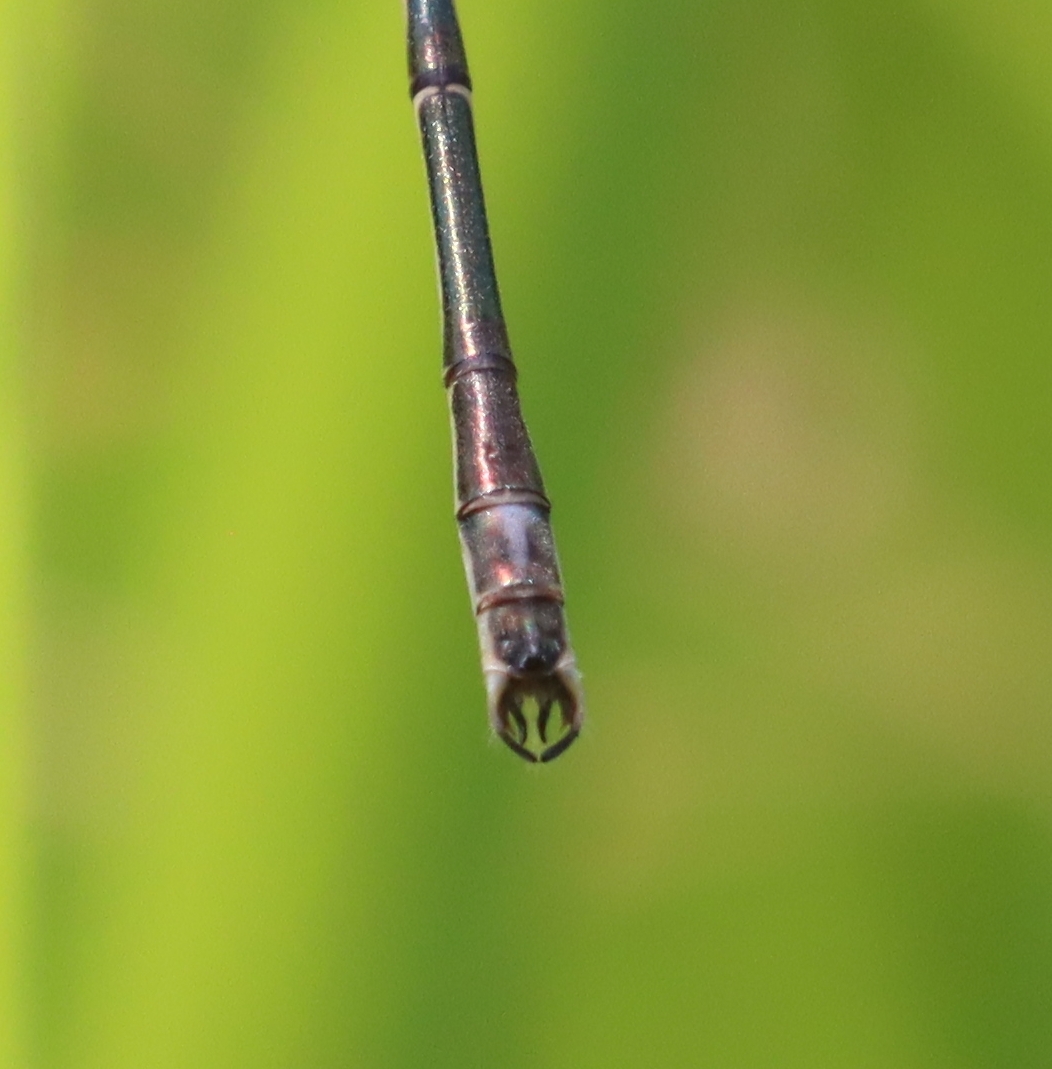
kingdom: Animalia
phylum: Arthropoda
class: Insecta
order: Odonata
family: Lestidae
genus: Lestes
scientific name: Lestes rectangularis
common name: Slender spreadwing
